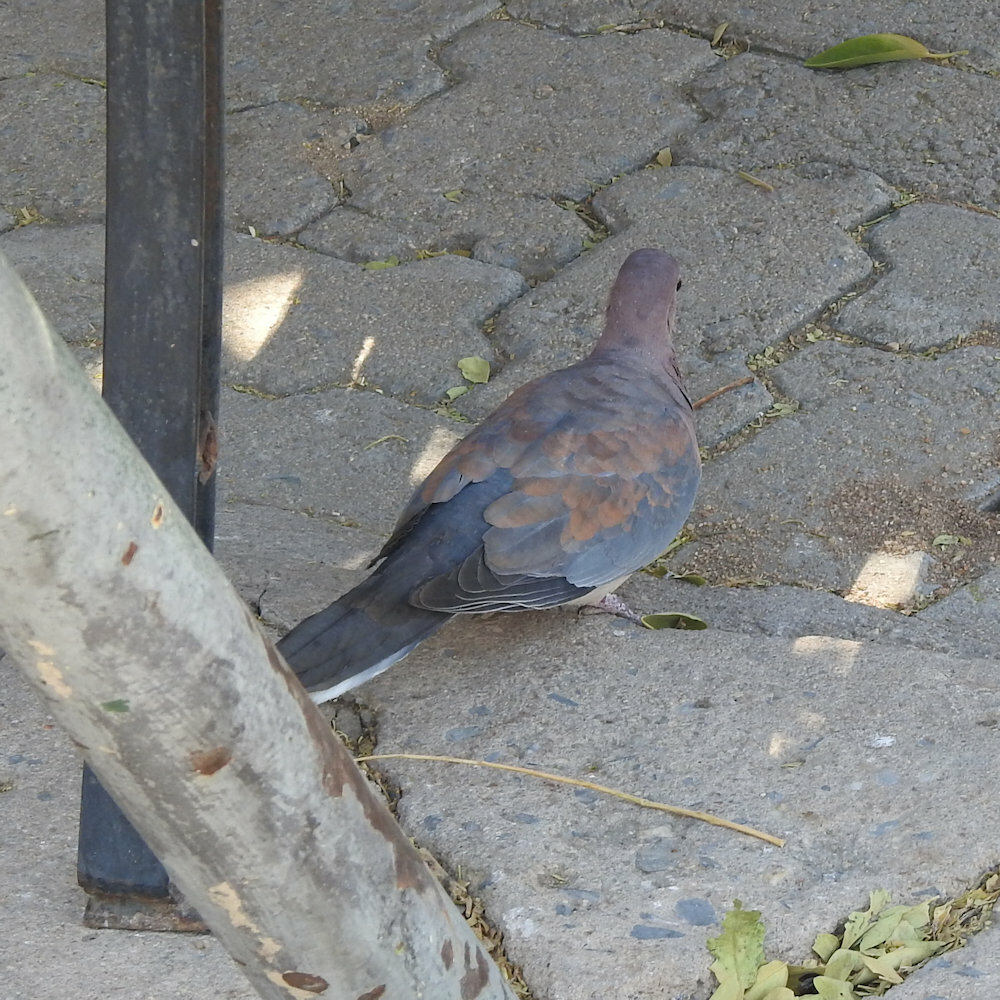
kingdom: Animalia
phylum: Chordata
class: Aves
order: Columbiformes
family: Columbidae
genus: Spilopelia
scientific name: Spilopelia senegalensis
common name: Laughing dove
